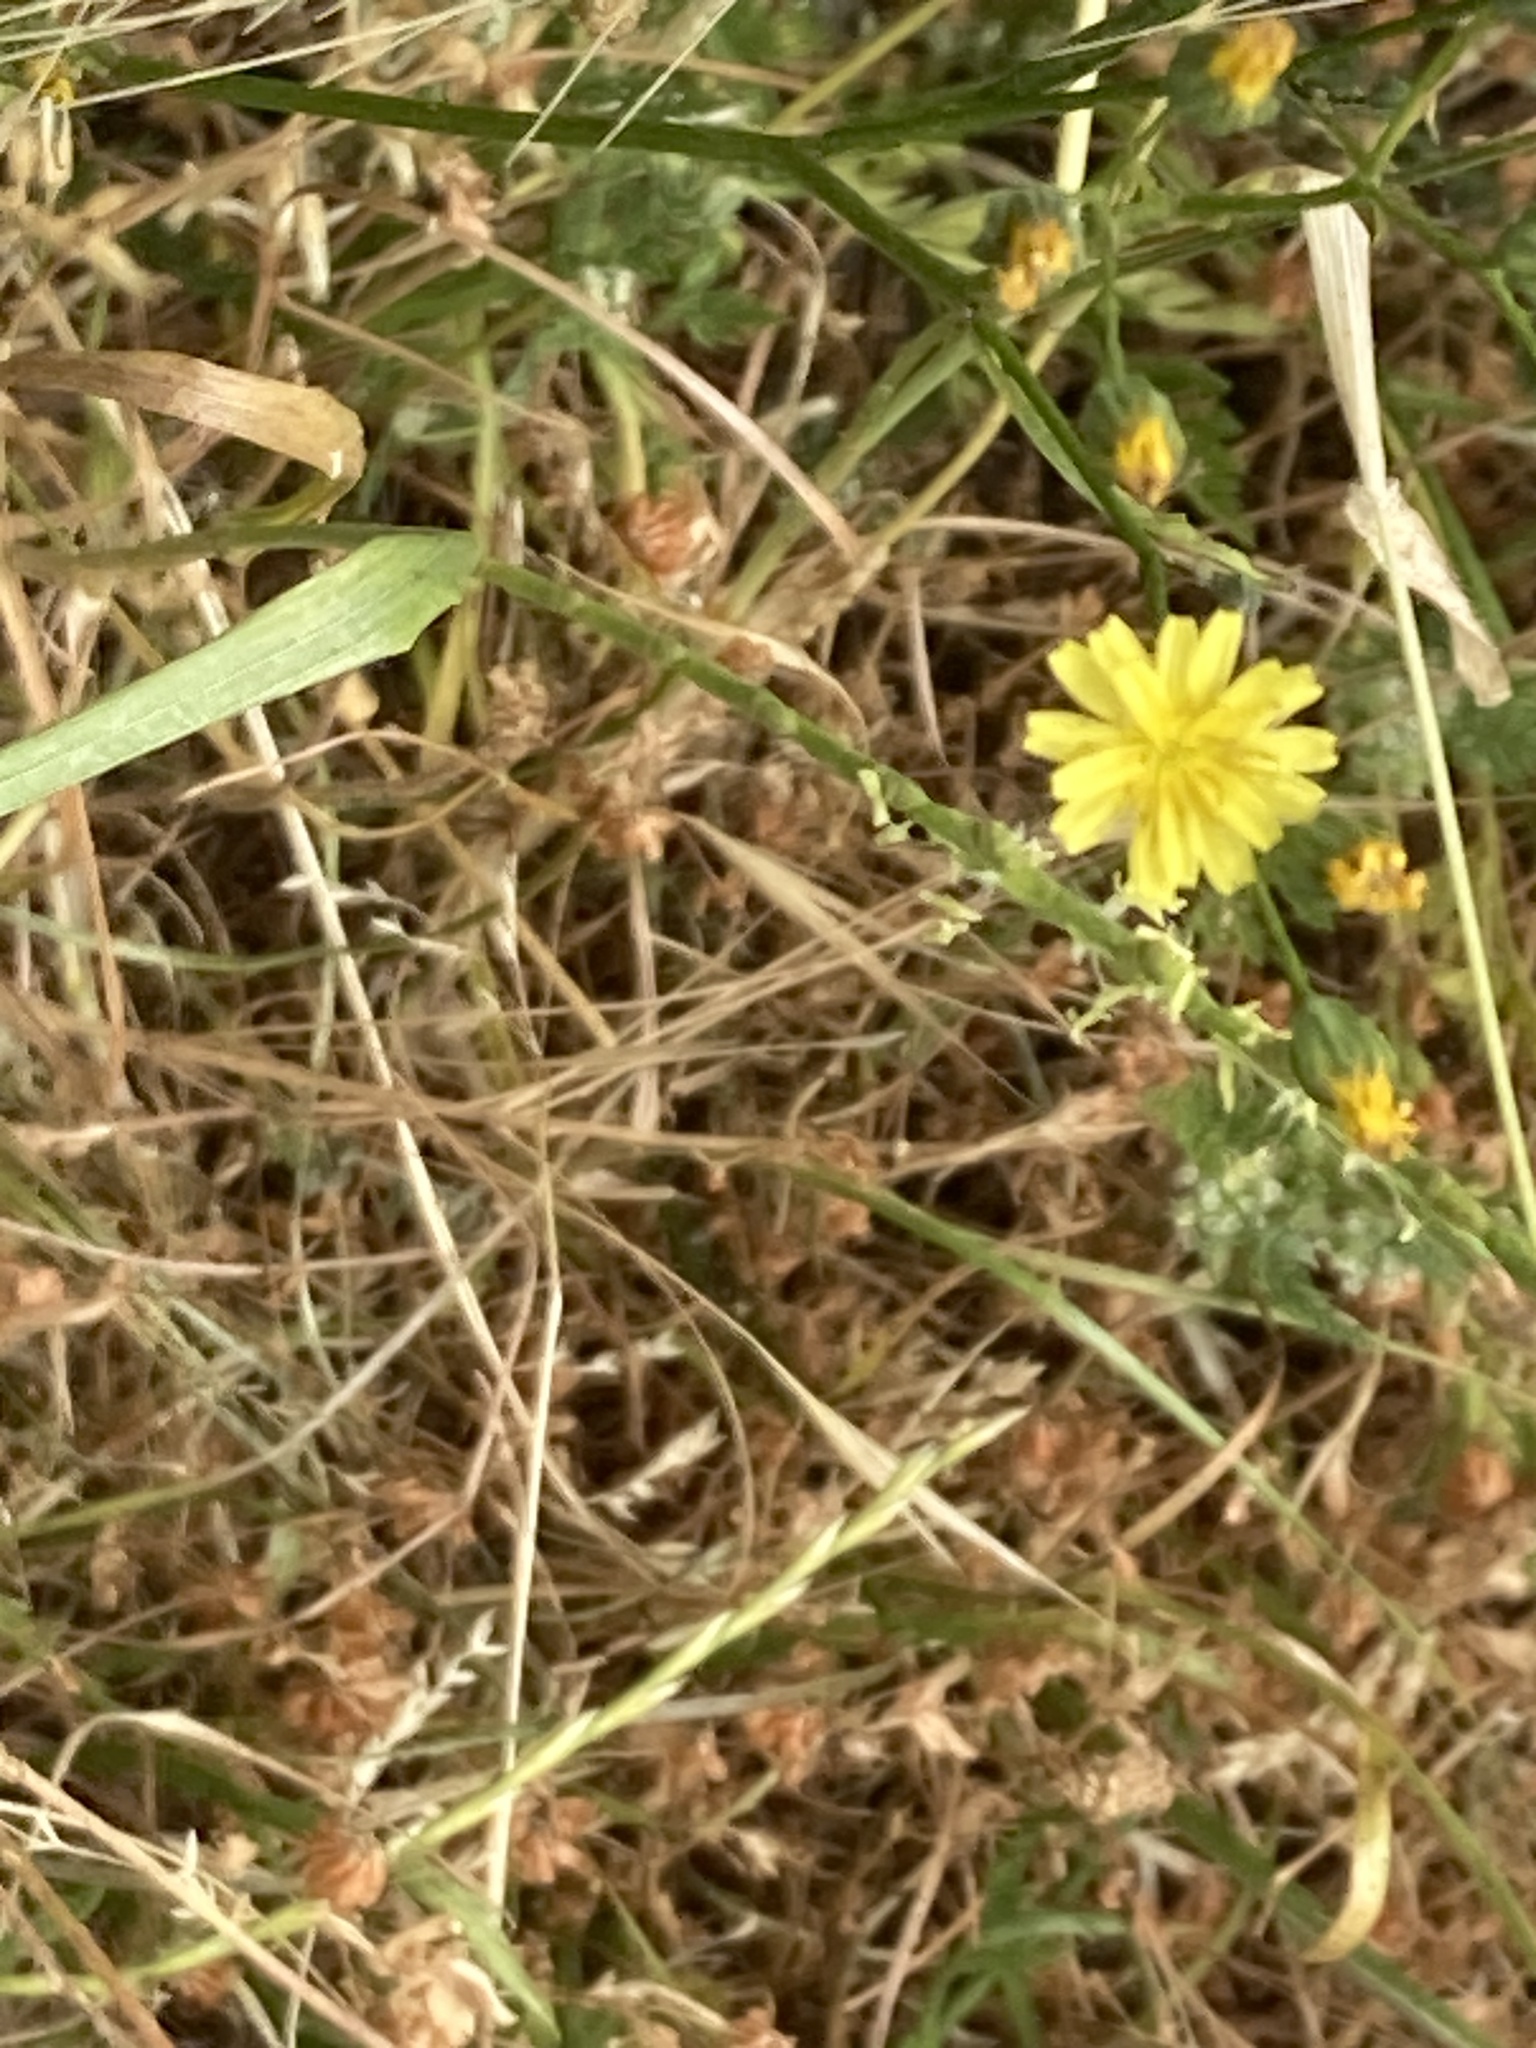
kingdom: Plantae
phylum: Tracheophyta
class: Magnoliopsida
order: Asterales
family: Asteraceae
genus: Lapsana
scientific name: Lapsana communis
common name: Nipplewort
